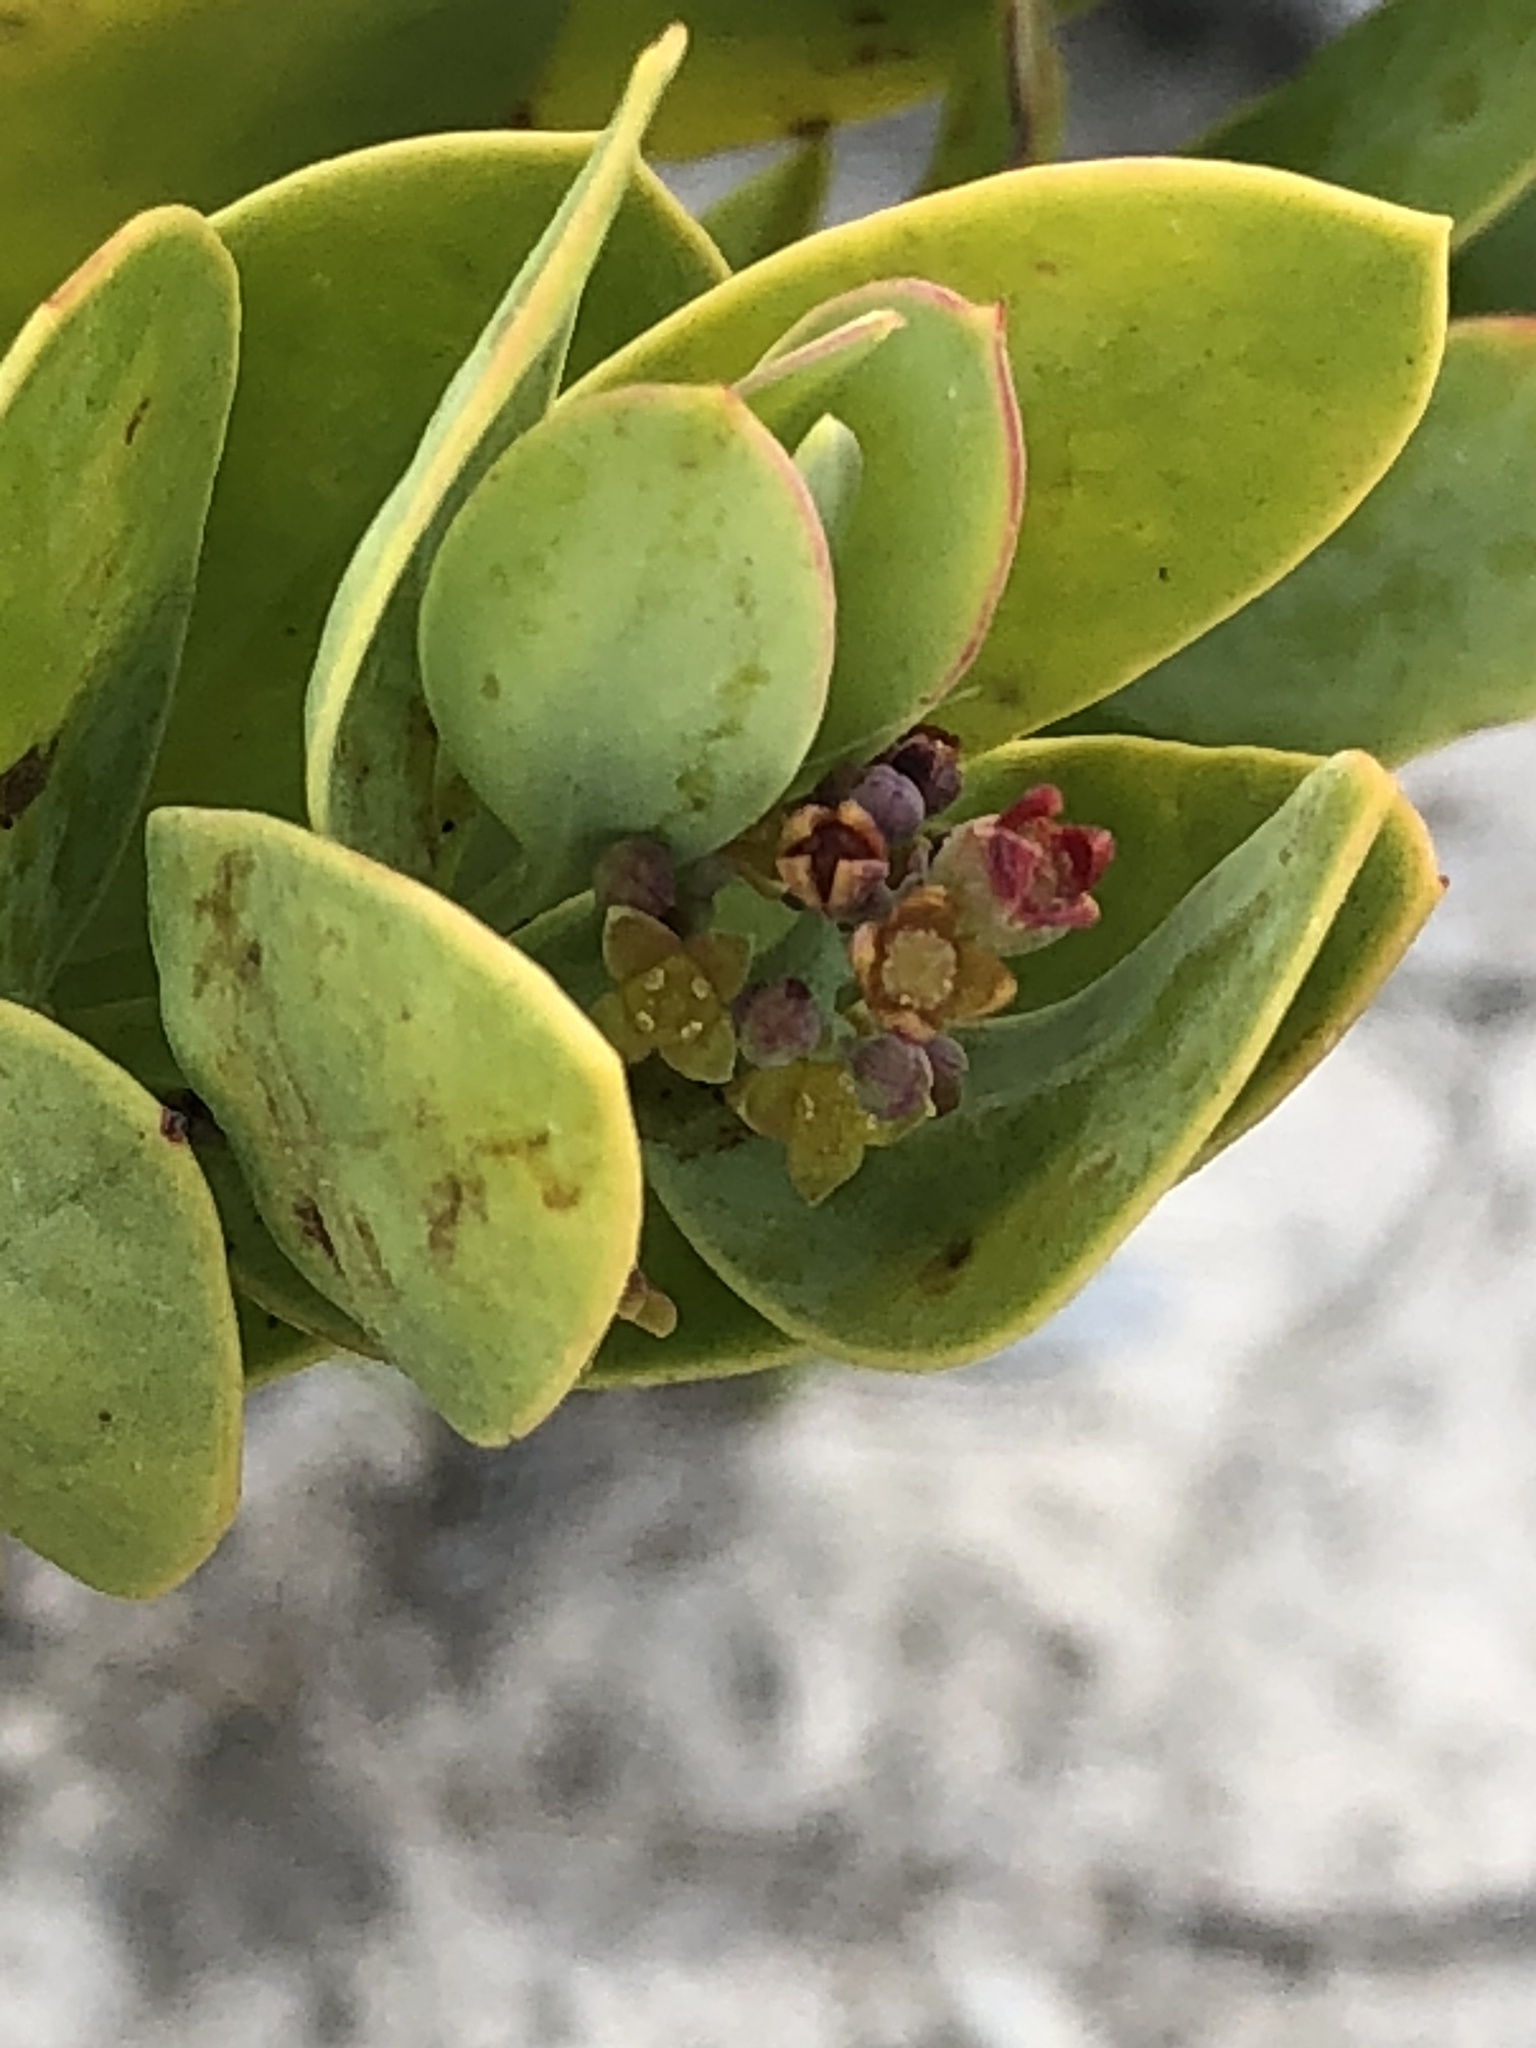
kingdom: Plantae
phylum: Tracheophyta
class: Magnoliopsida
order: Santalales
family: Santalaceae
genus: Osyris
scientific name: Osyris compressa
